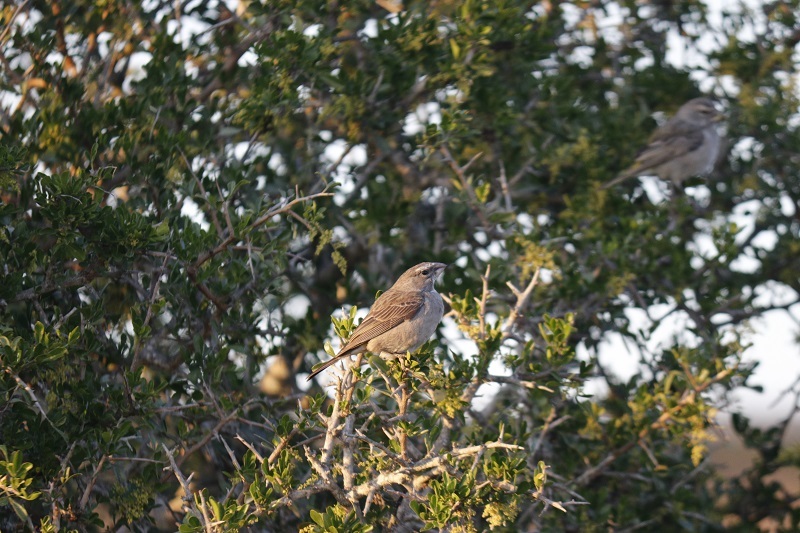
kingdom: Animalia
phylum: Chordata
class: Aves
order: Passeriformes
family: Fringillidae
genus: Crithagra
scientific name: Crithagra gularis
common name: Streaky-headed seedeater
